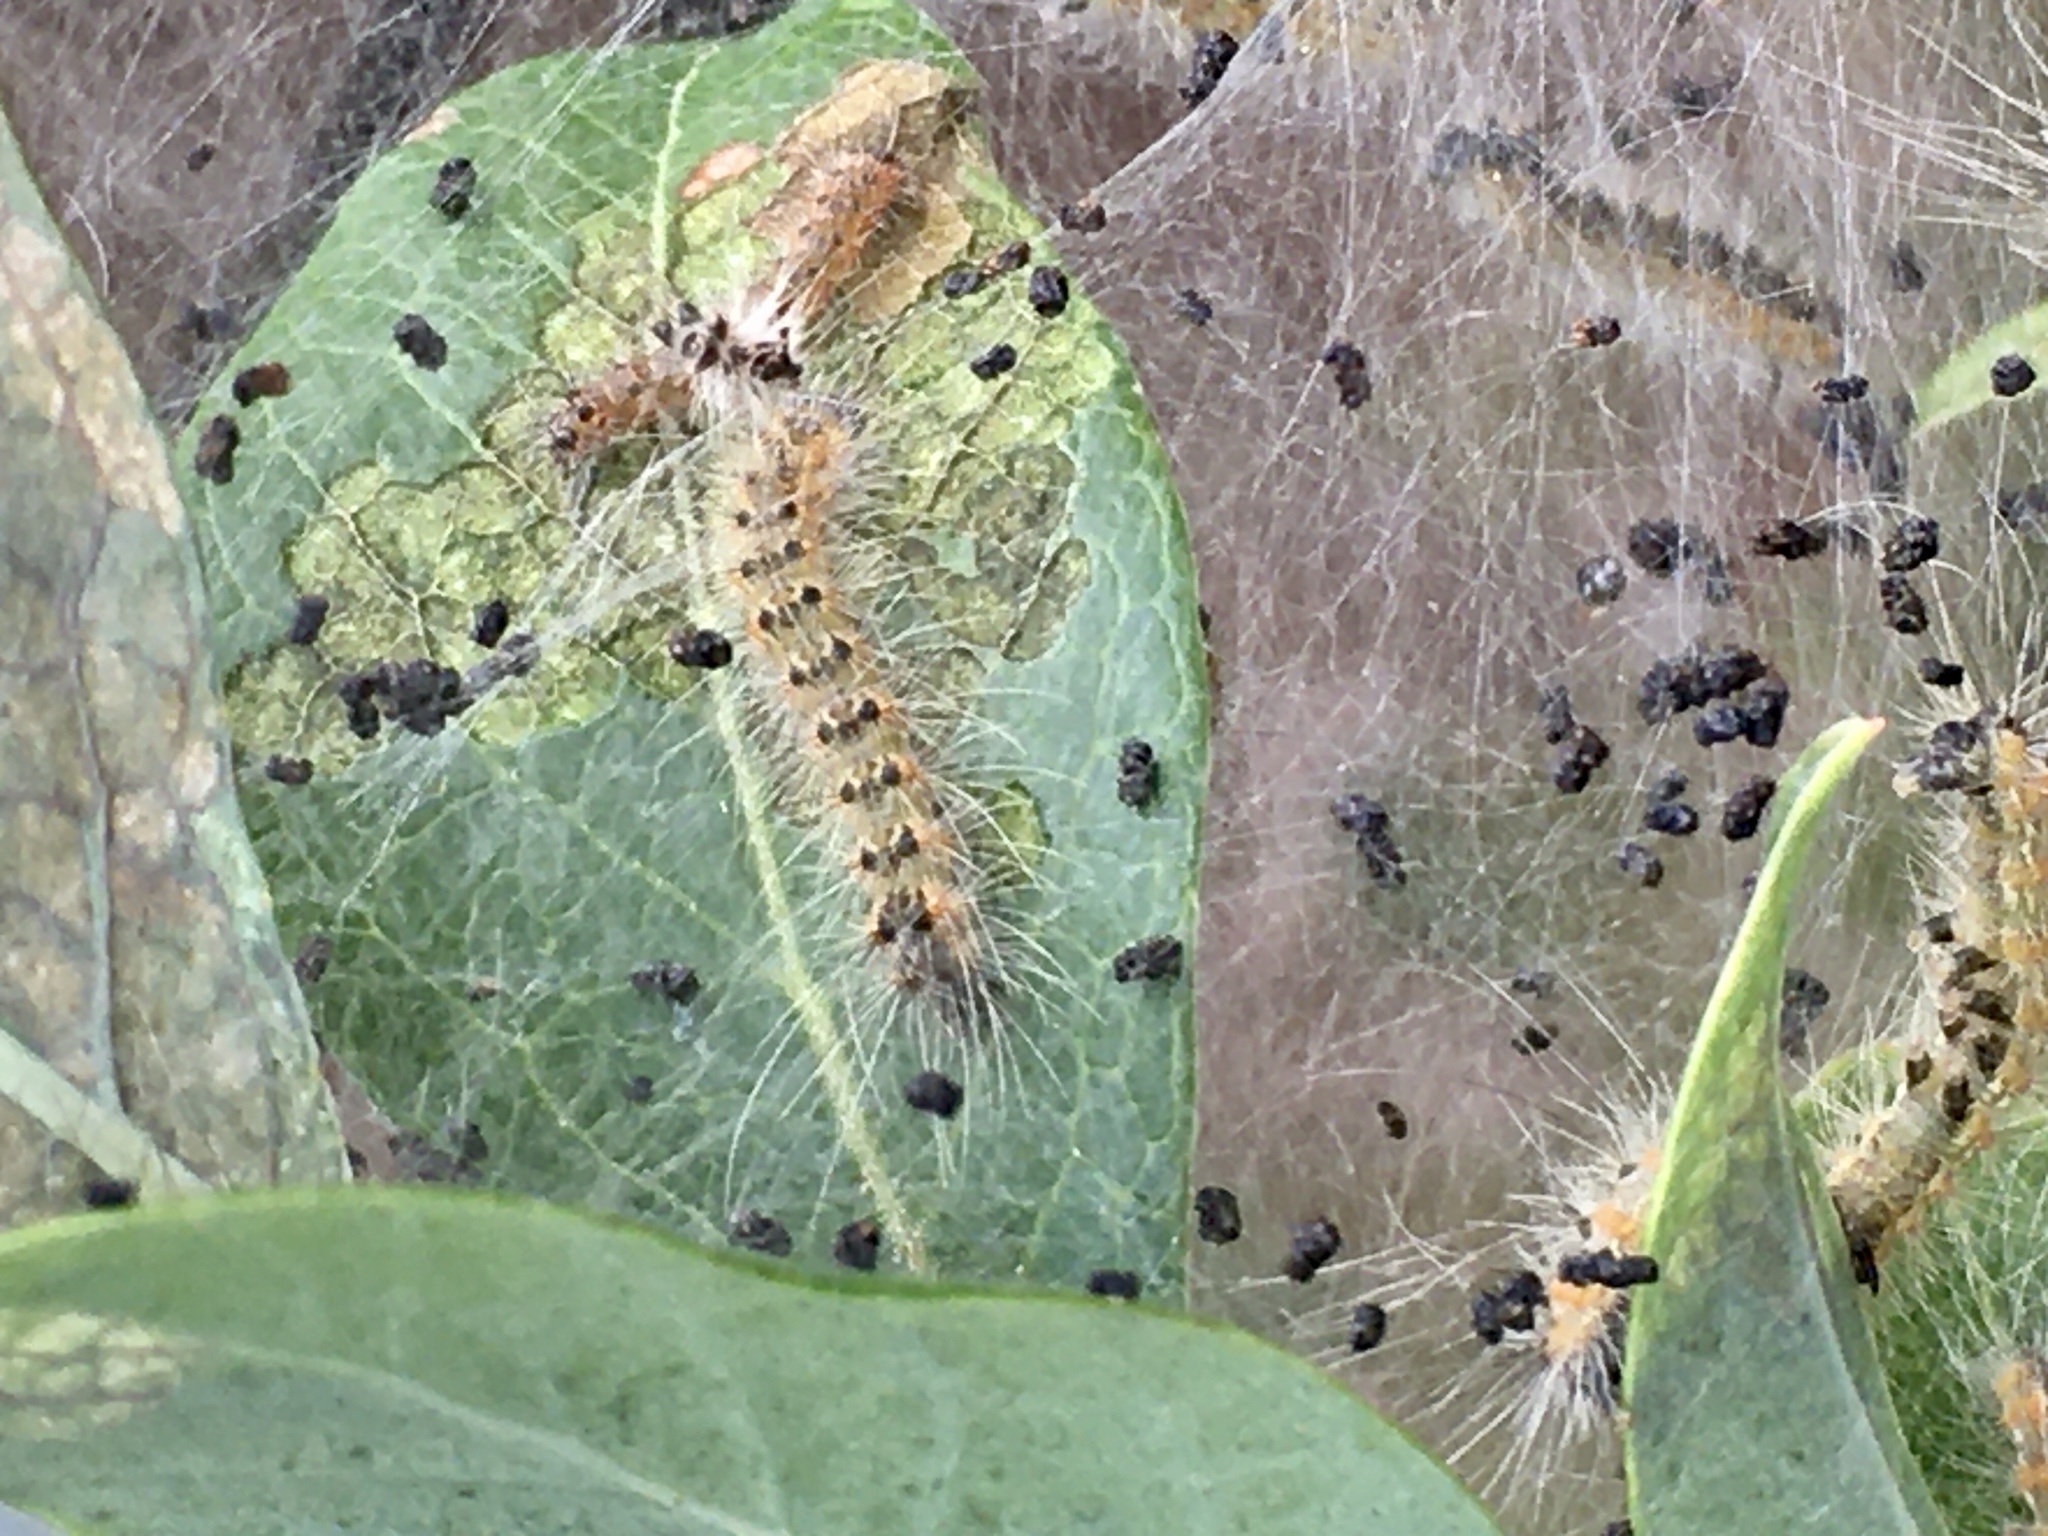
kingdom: Animalia
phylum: Arthropoda
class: Insecta
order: Lepidoptera
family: Erebidae
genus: Hyphantria
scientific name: Hyphantria cunea
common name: American white moth
